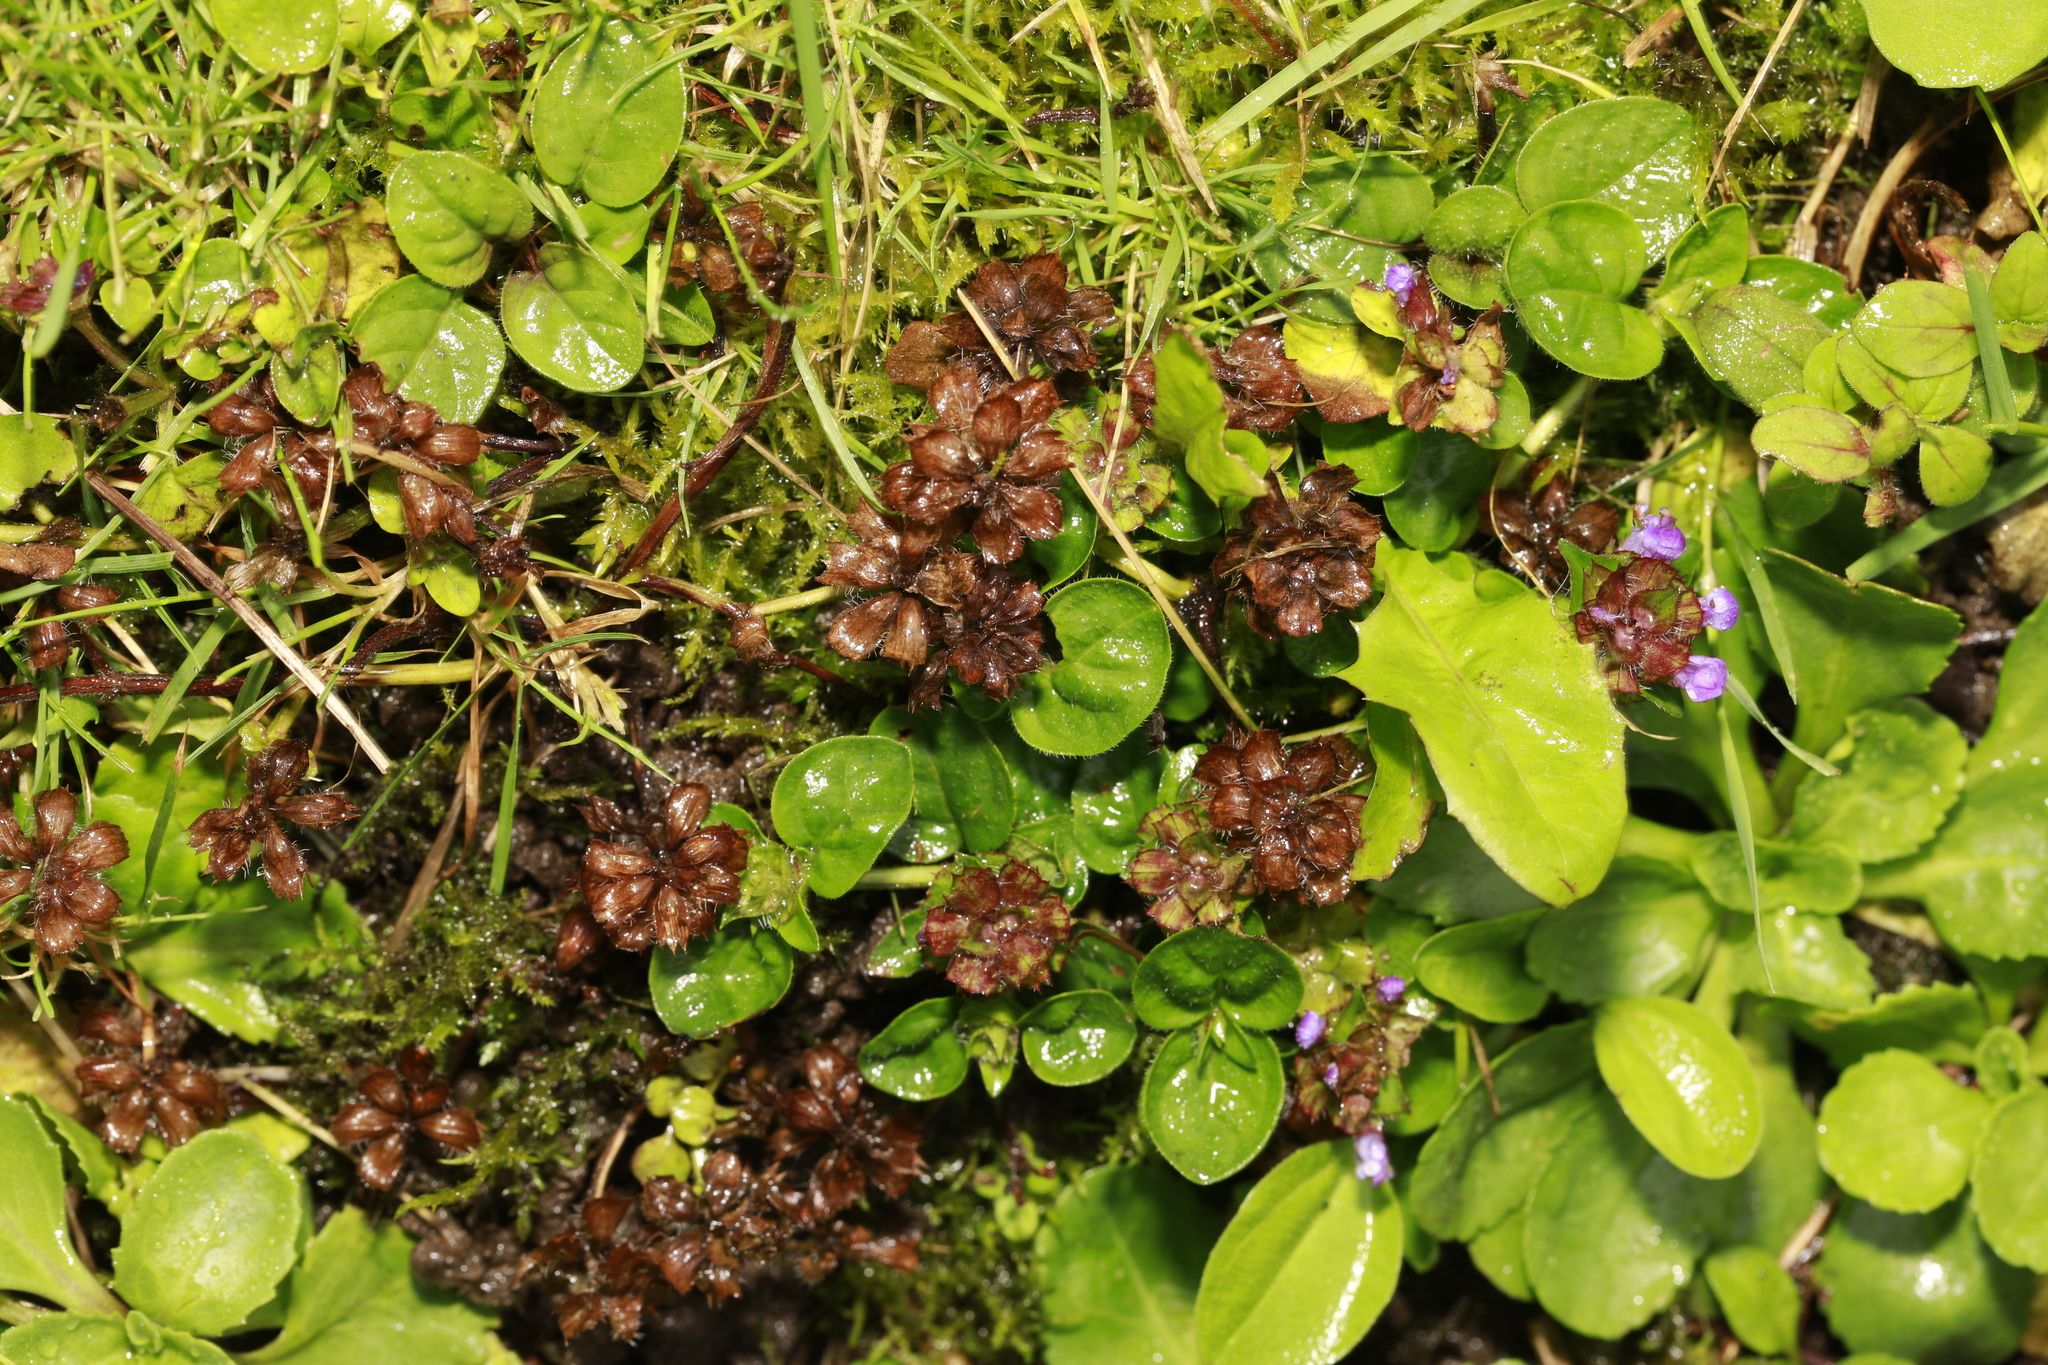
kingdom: Plantae
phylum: Tracheophyta
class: Magnoliopsida
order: Lamiales
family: Lamiaceae
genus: Prunella
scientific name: Prunella vulgaris
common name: Heal-all
